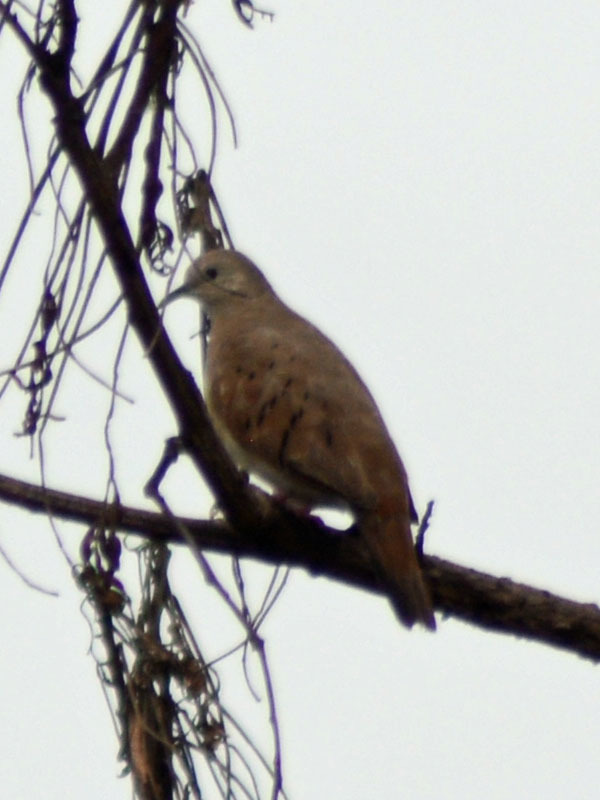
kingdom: Animalia
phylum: Chordata
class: Aves
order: Columbiformes
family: Columbidae
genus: Columbina
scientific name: Columbina talpacoti
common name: Ruddy ground dove
